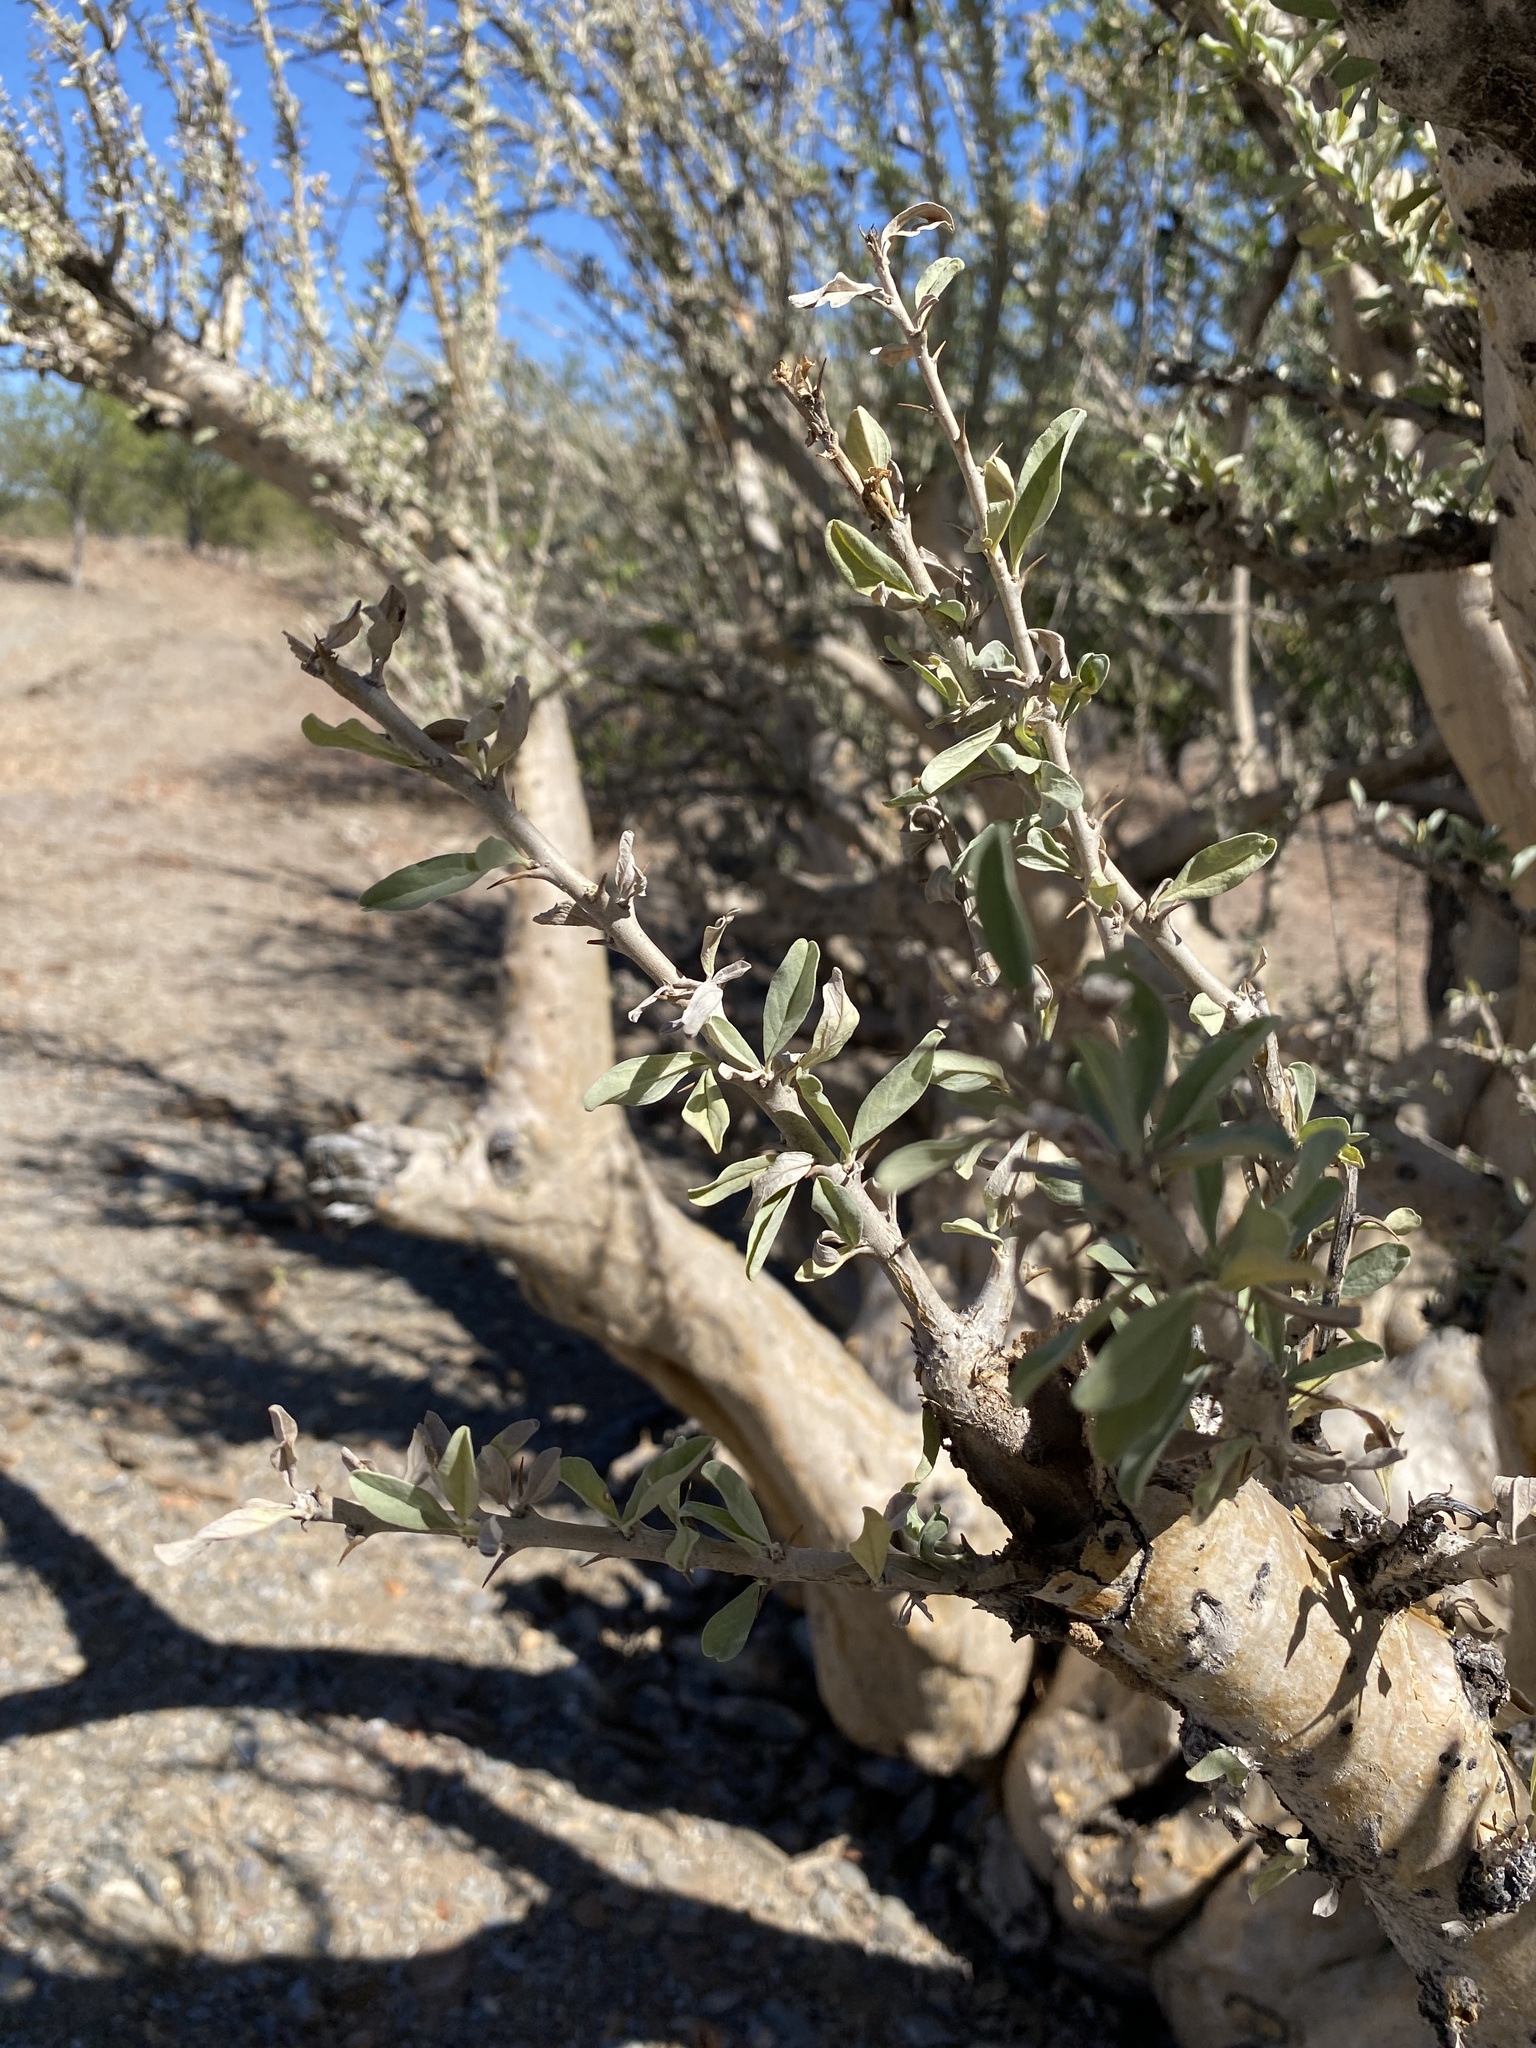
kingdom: Plantae
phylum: Tracheophyta
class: Magnoliopsida
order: Lamiales
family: Pedaliaceae
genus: Sesamothamnus
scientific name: Sesamothamnus guerichii
